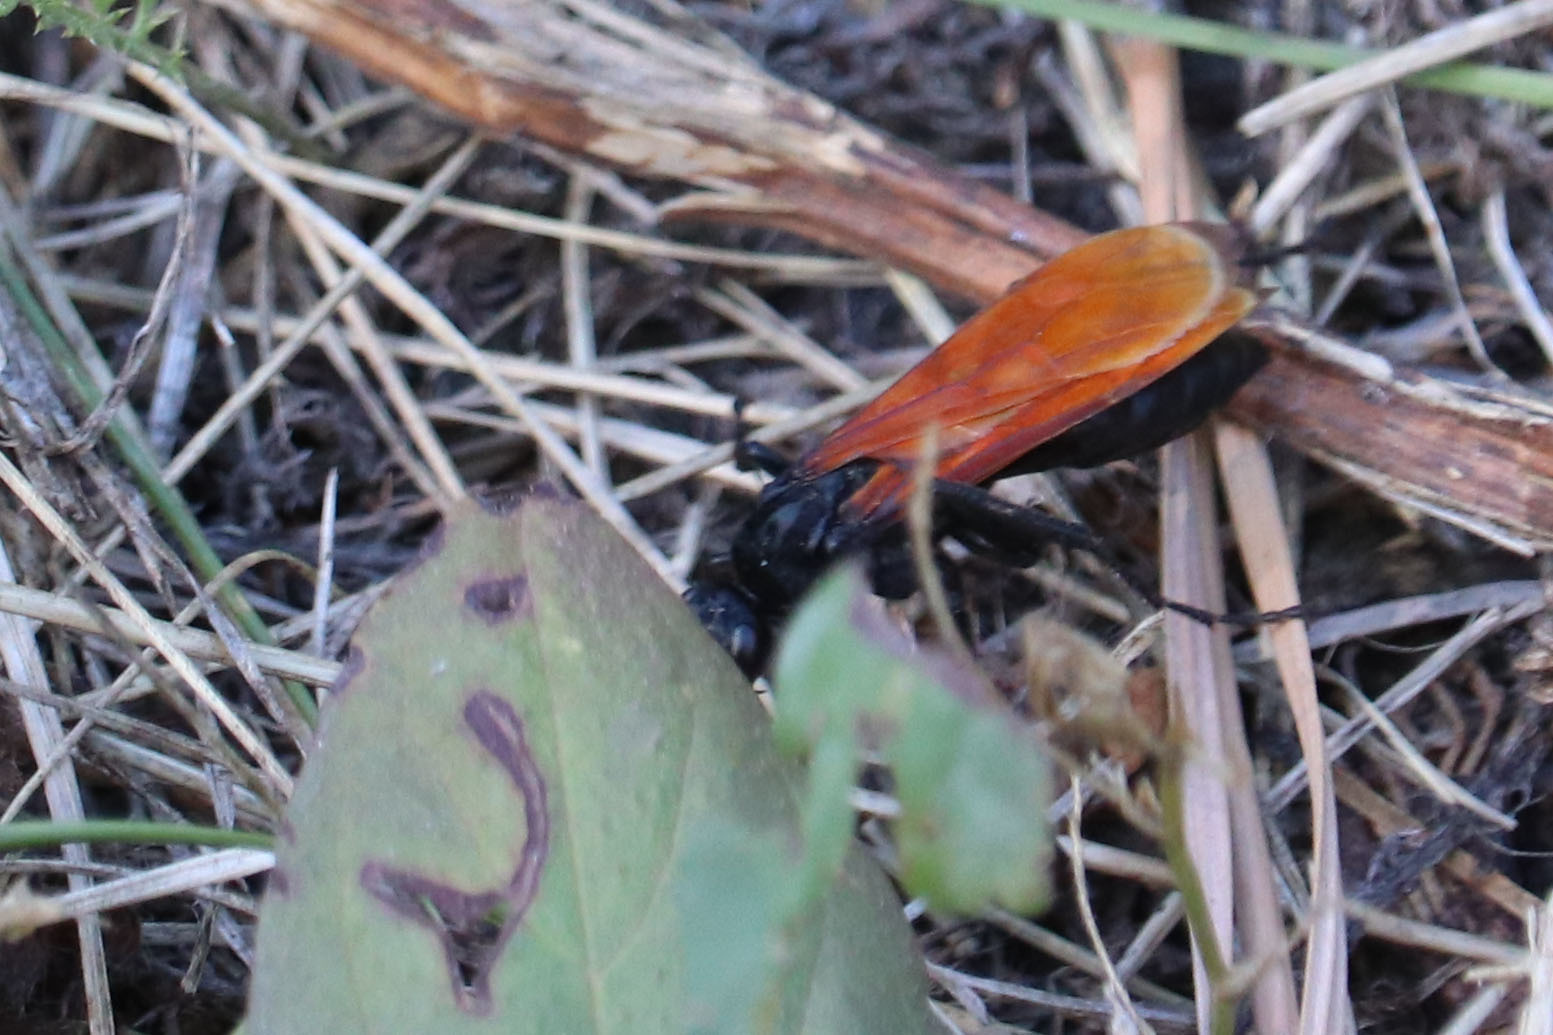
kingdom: Animalia
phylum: Arthropoda
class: Insecta
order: Hymenoptera
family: Pompilidae
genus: Chirodamus
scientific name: Chirodamus pyrrhomelas
